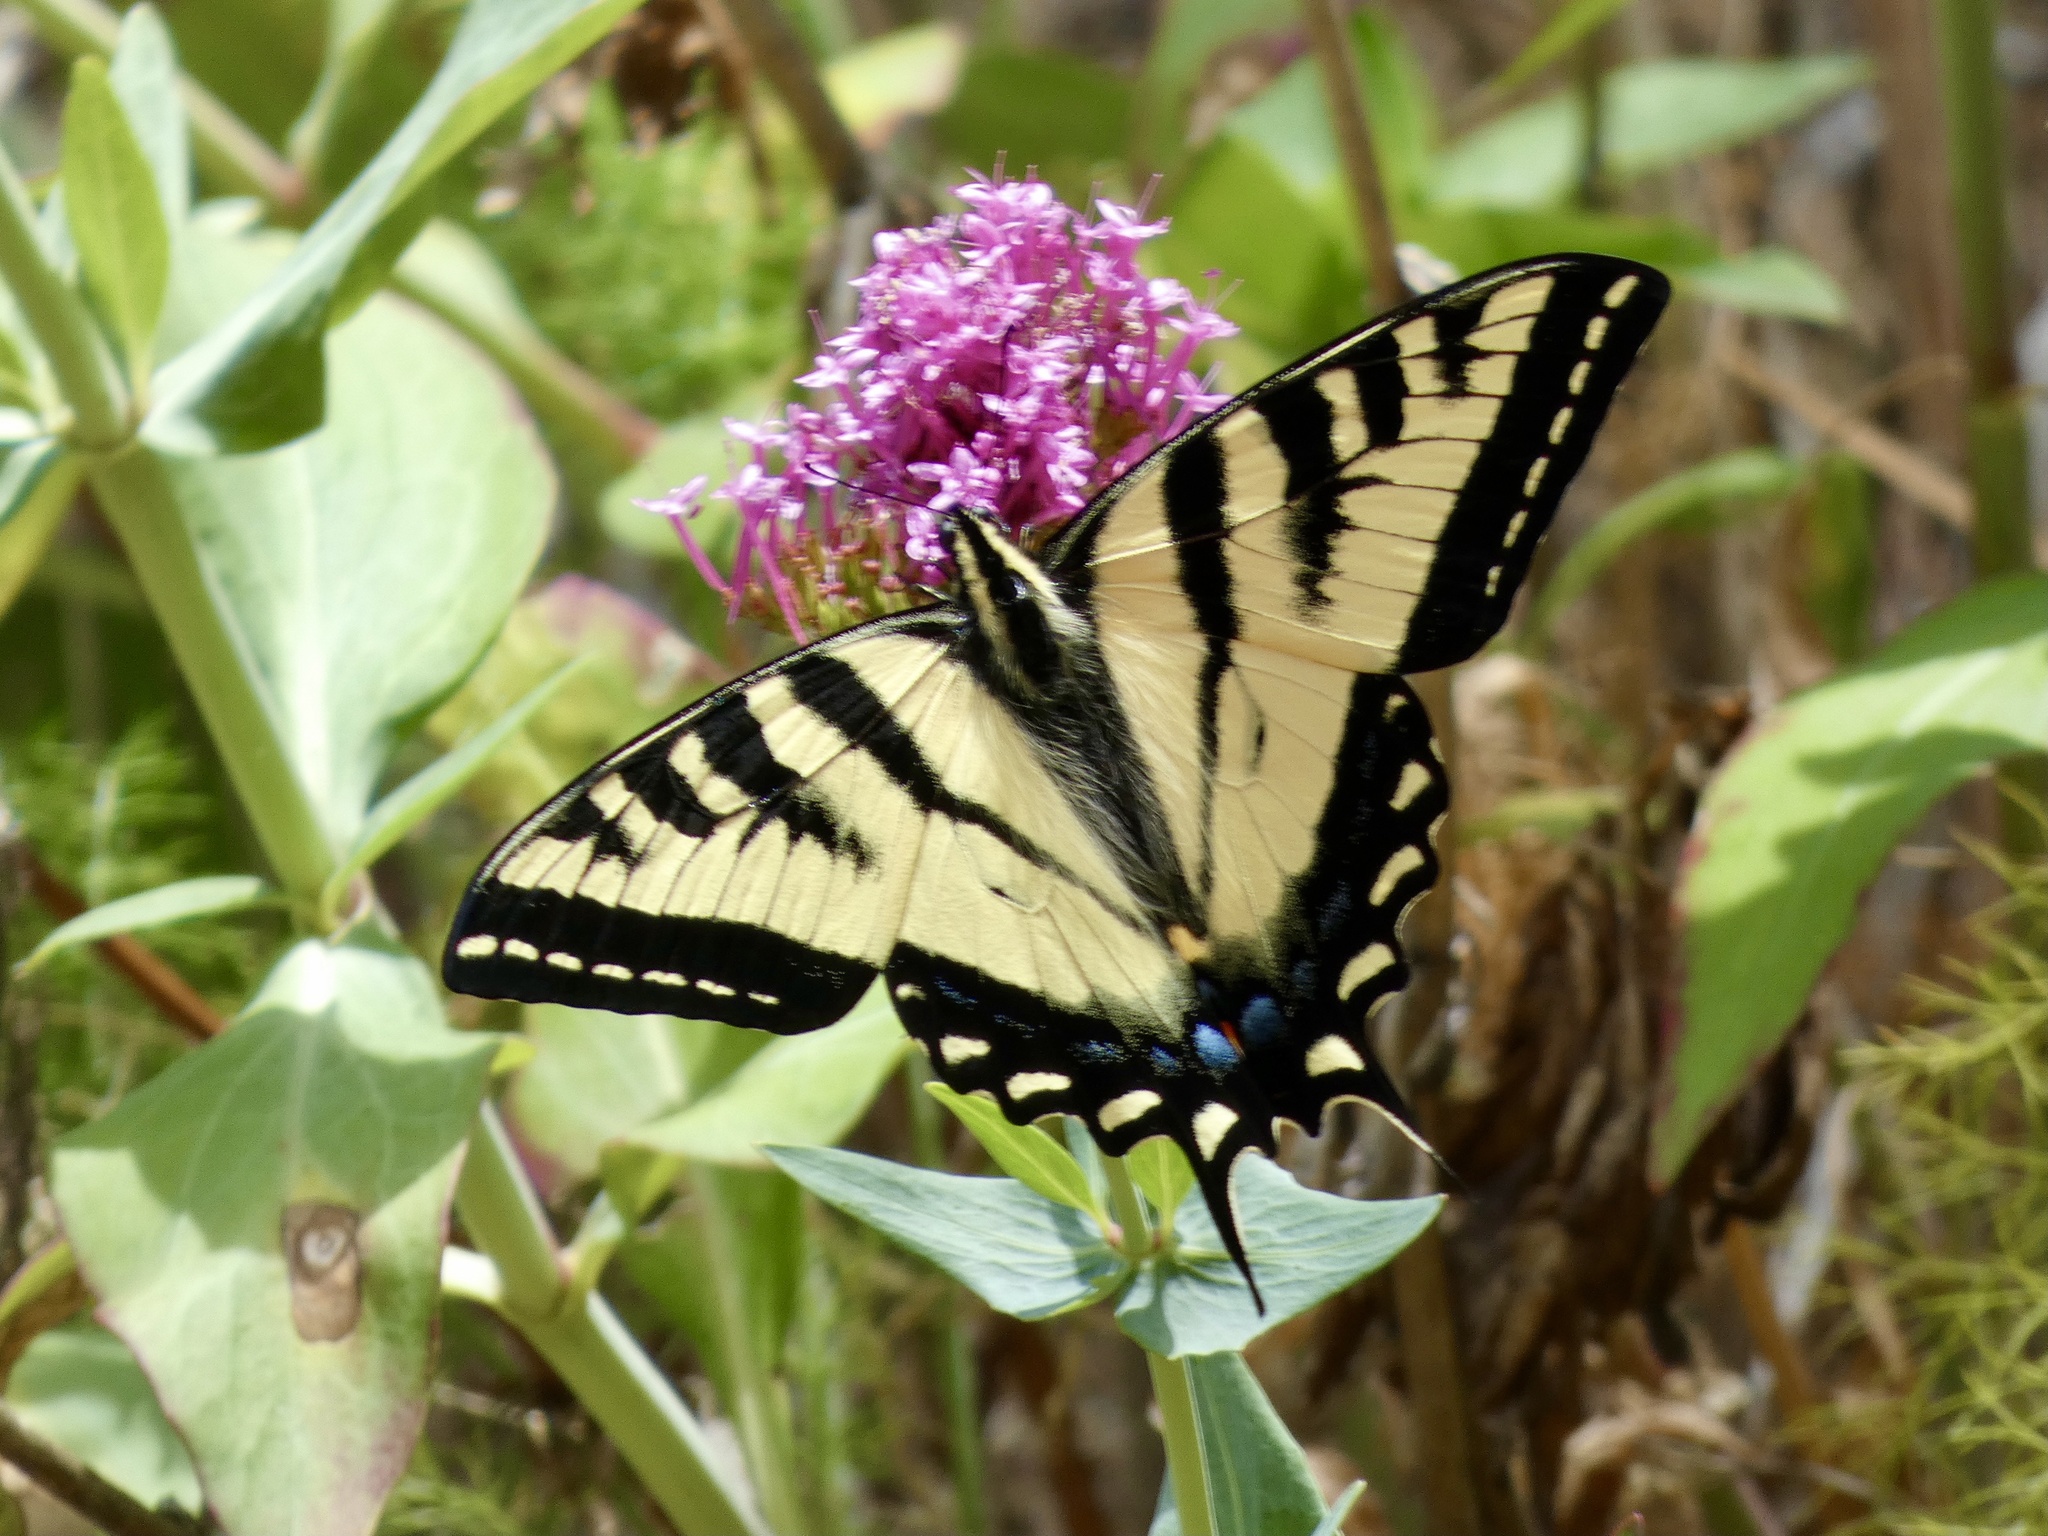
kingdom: Animalia
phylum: Arthropoda
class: Insecta
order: Lepidoptera
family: Papilionidae
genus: Papilio
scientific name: Papilio rutulus
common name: Western tiger swallowtail
